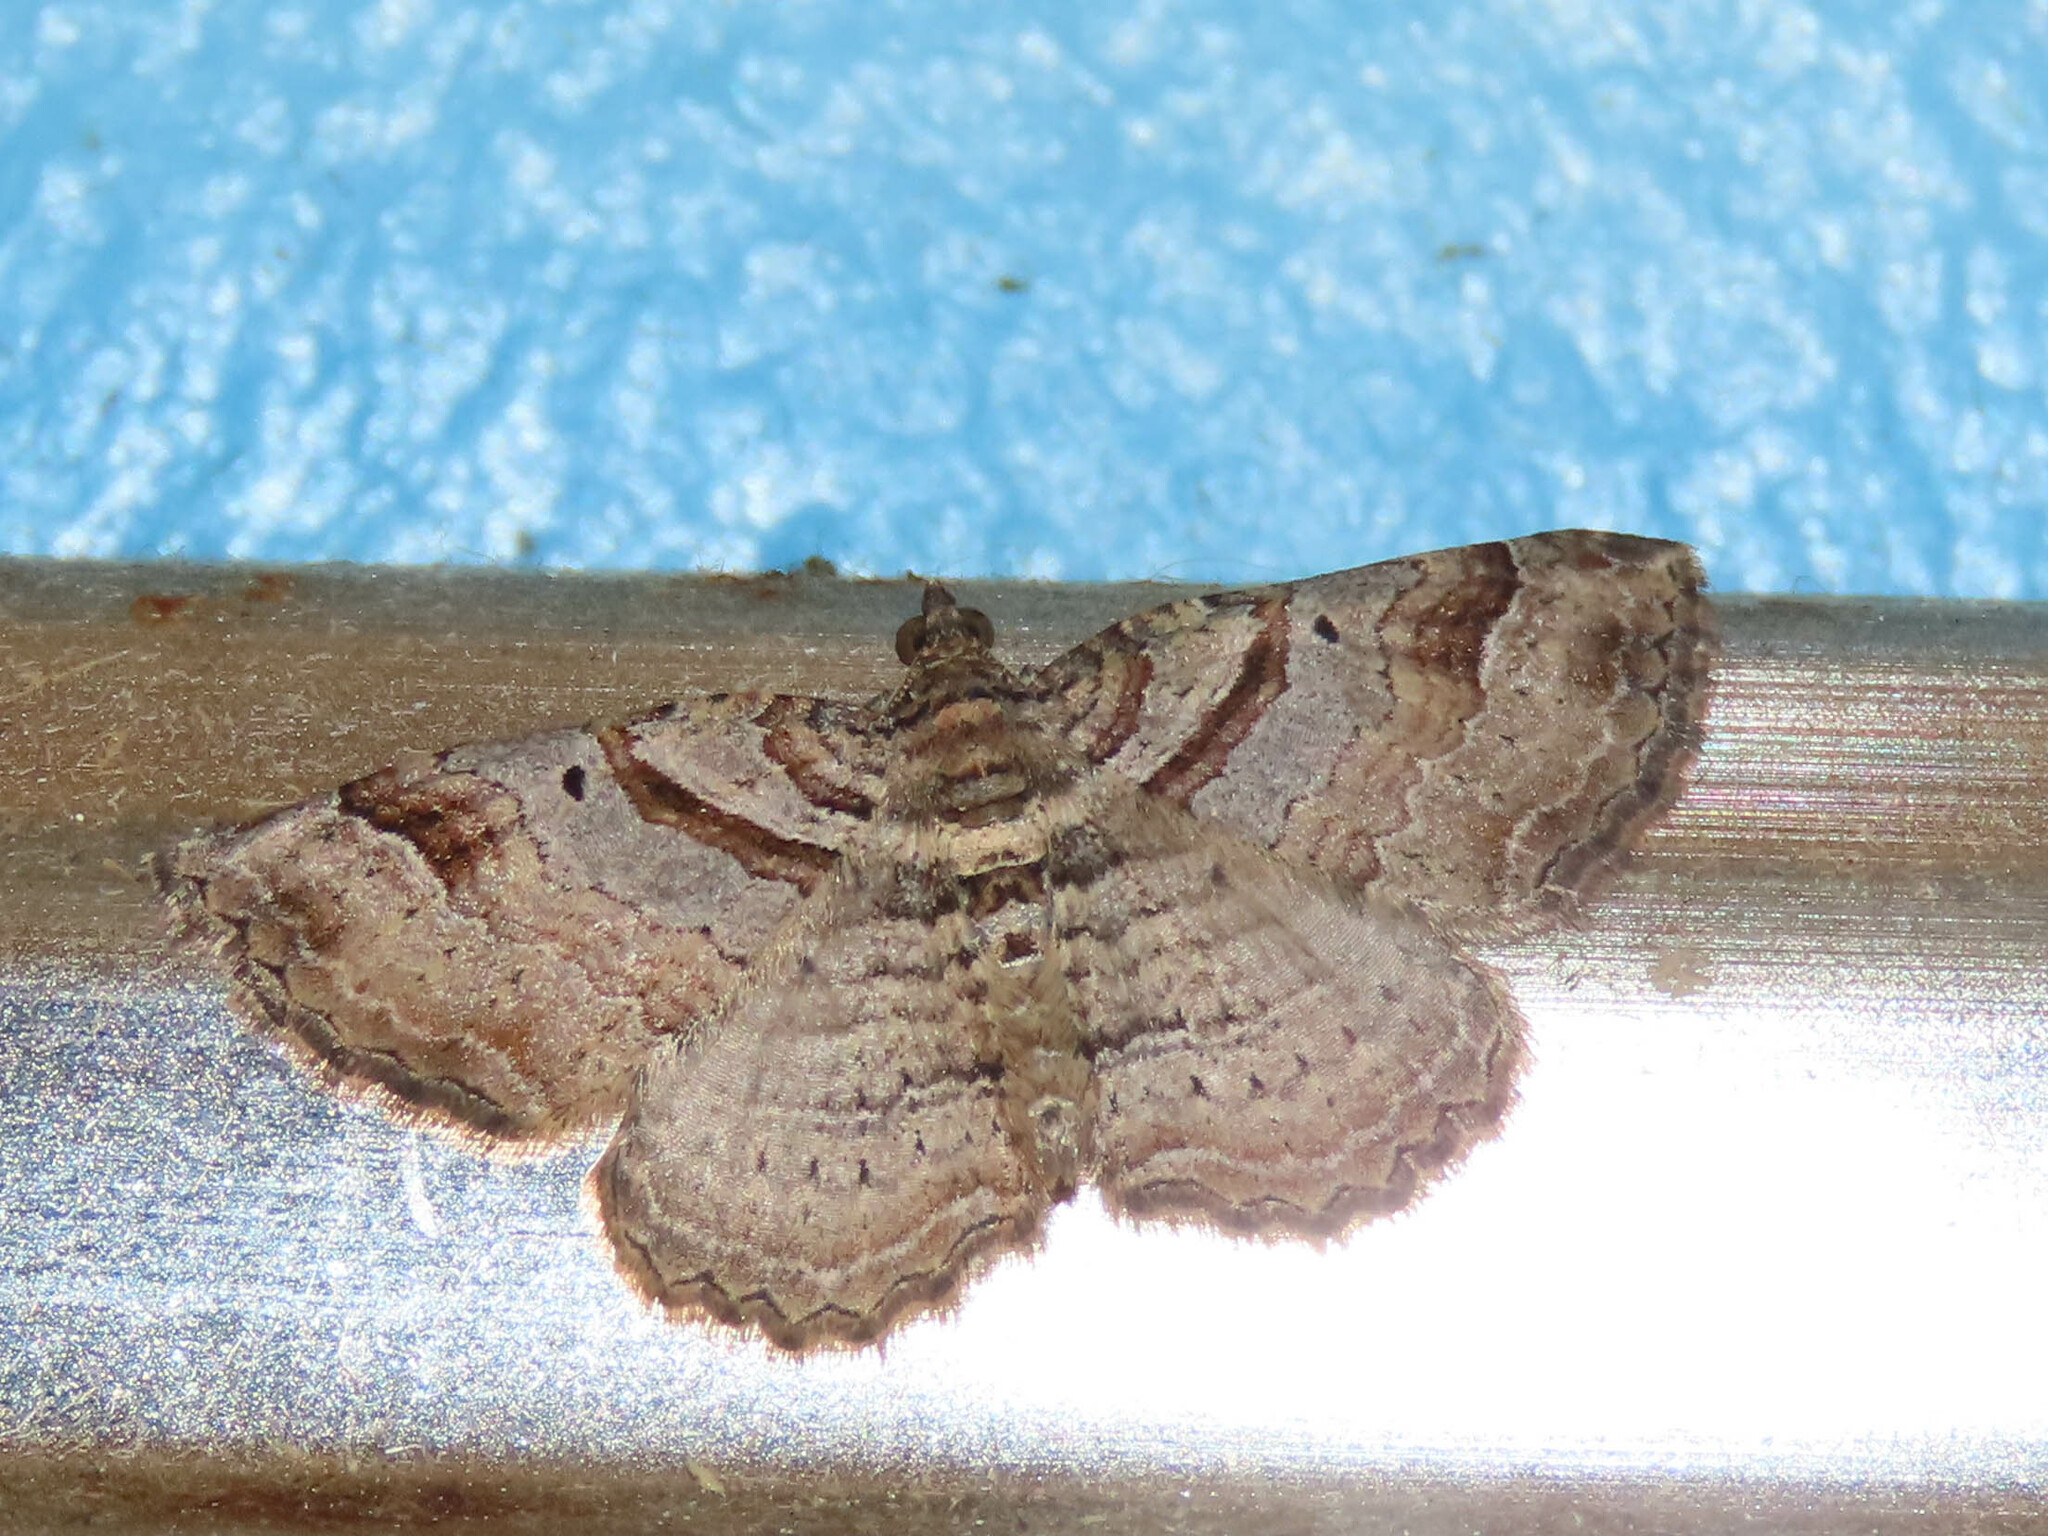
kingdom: Animalia
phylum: Arthropoda
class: Insecta
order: Lepidoptera
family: Geometridae
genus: Costaconvexa
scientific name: Costaconvexa centrostrigaria
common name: Bent-line carpet
